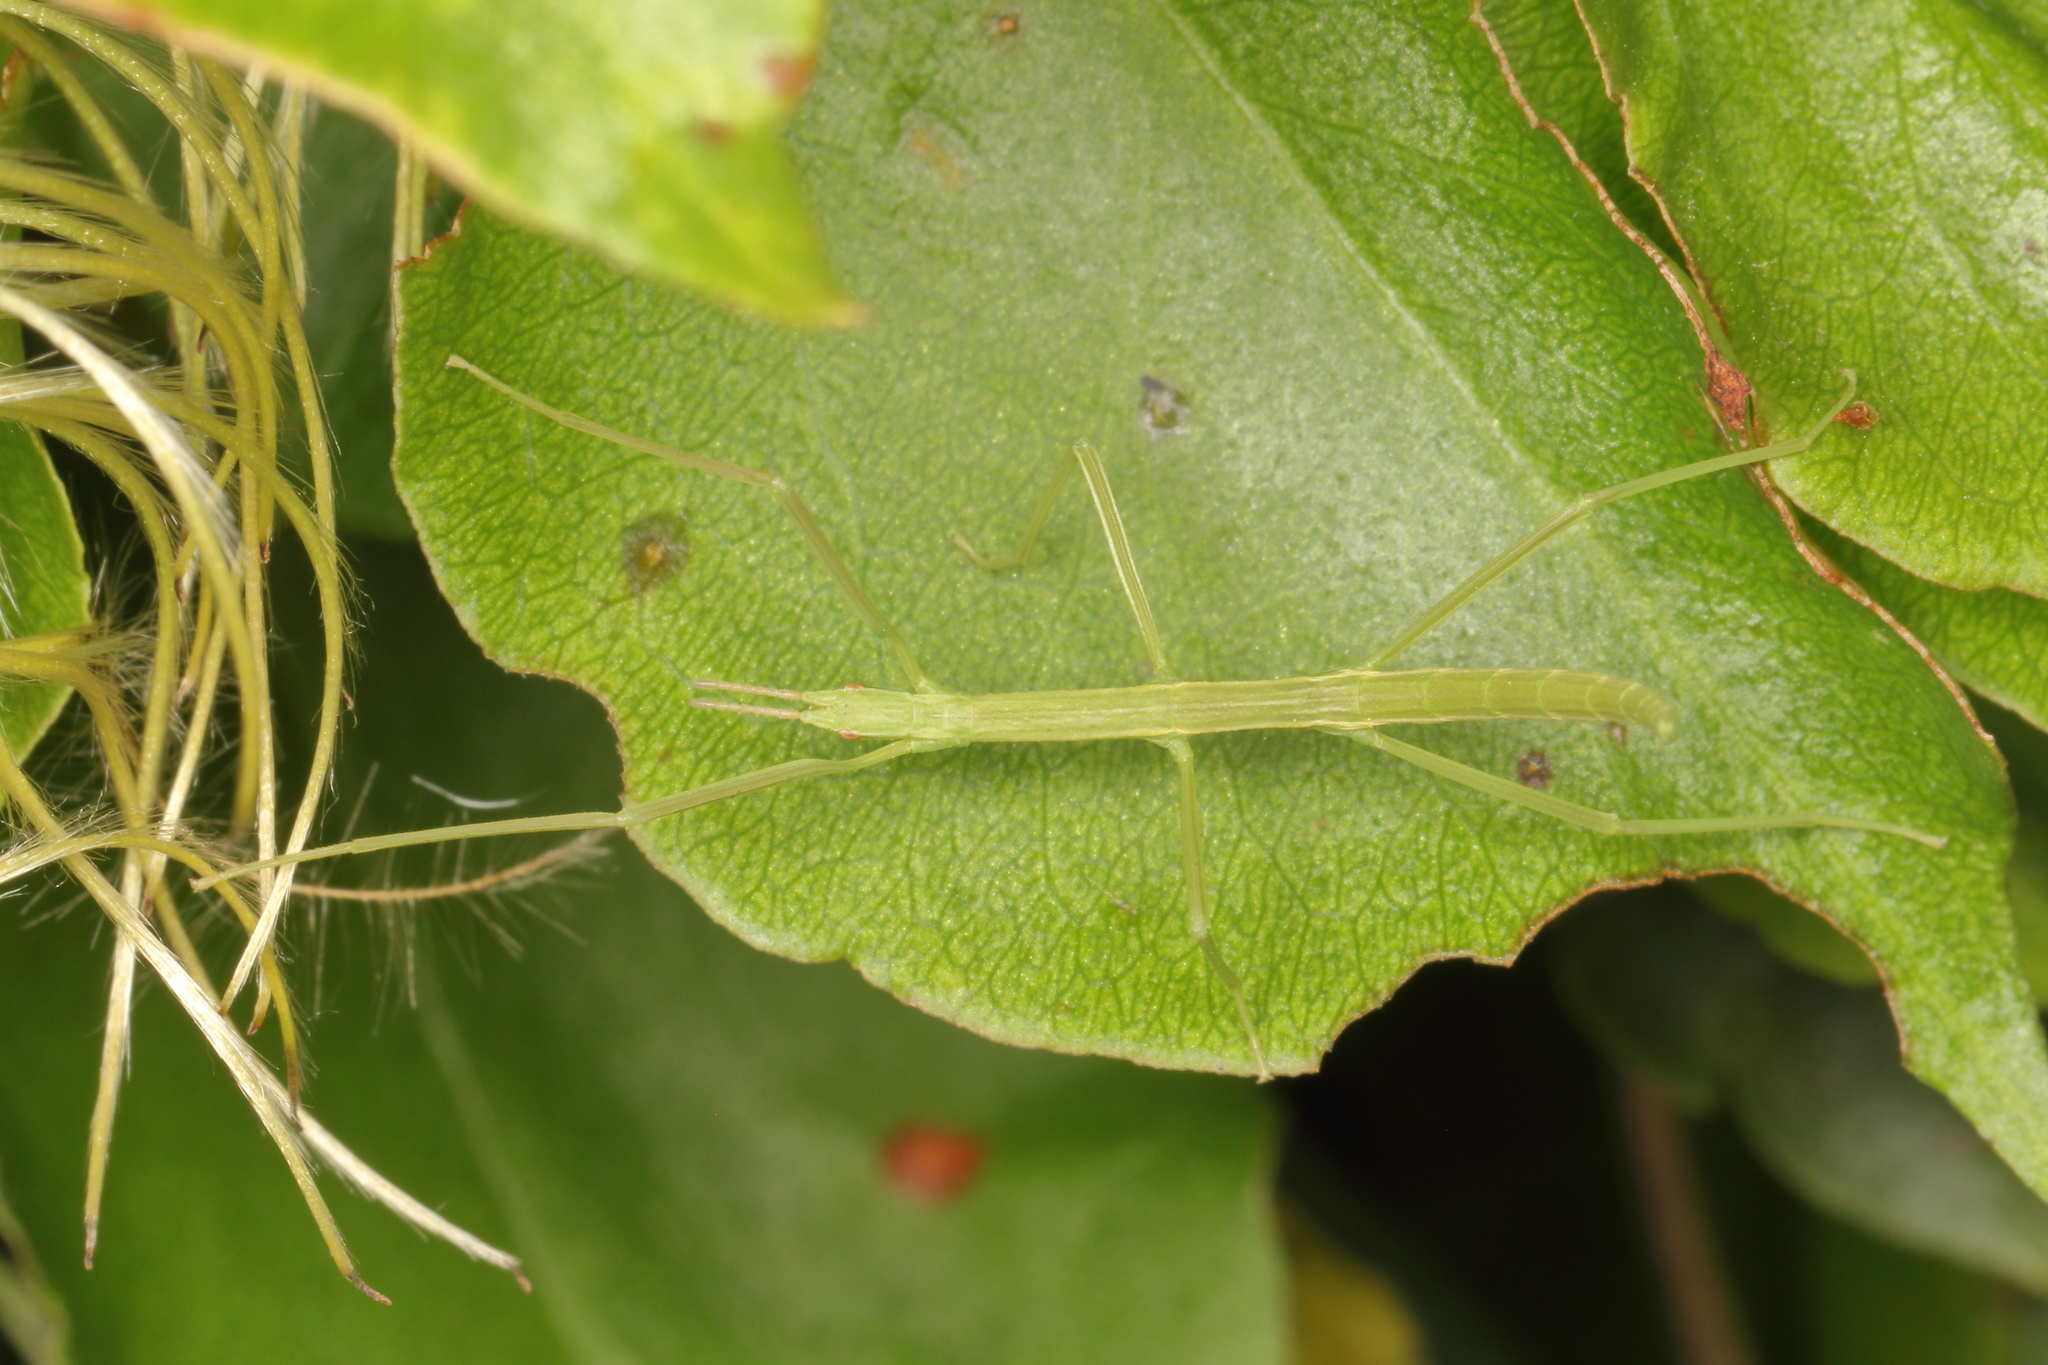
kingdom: Animalia
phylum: Arthropoda
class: Insecta
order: Phasmida
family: Phasmatidae
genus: Tectarchus
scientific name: Tectarchus salebrosus
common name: Lesser rough-skinned stick insect
